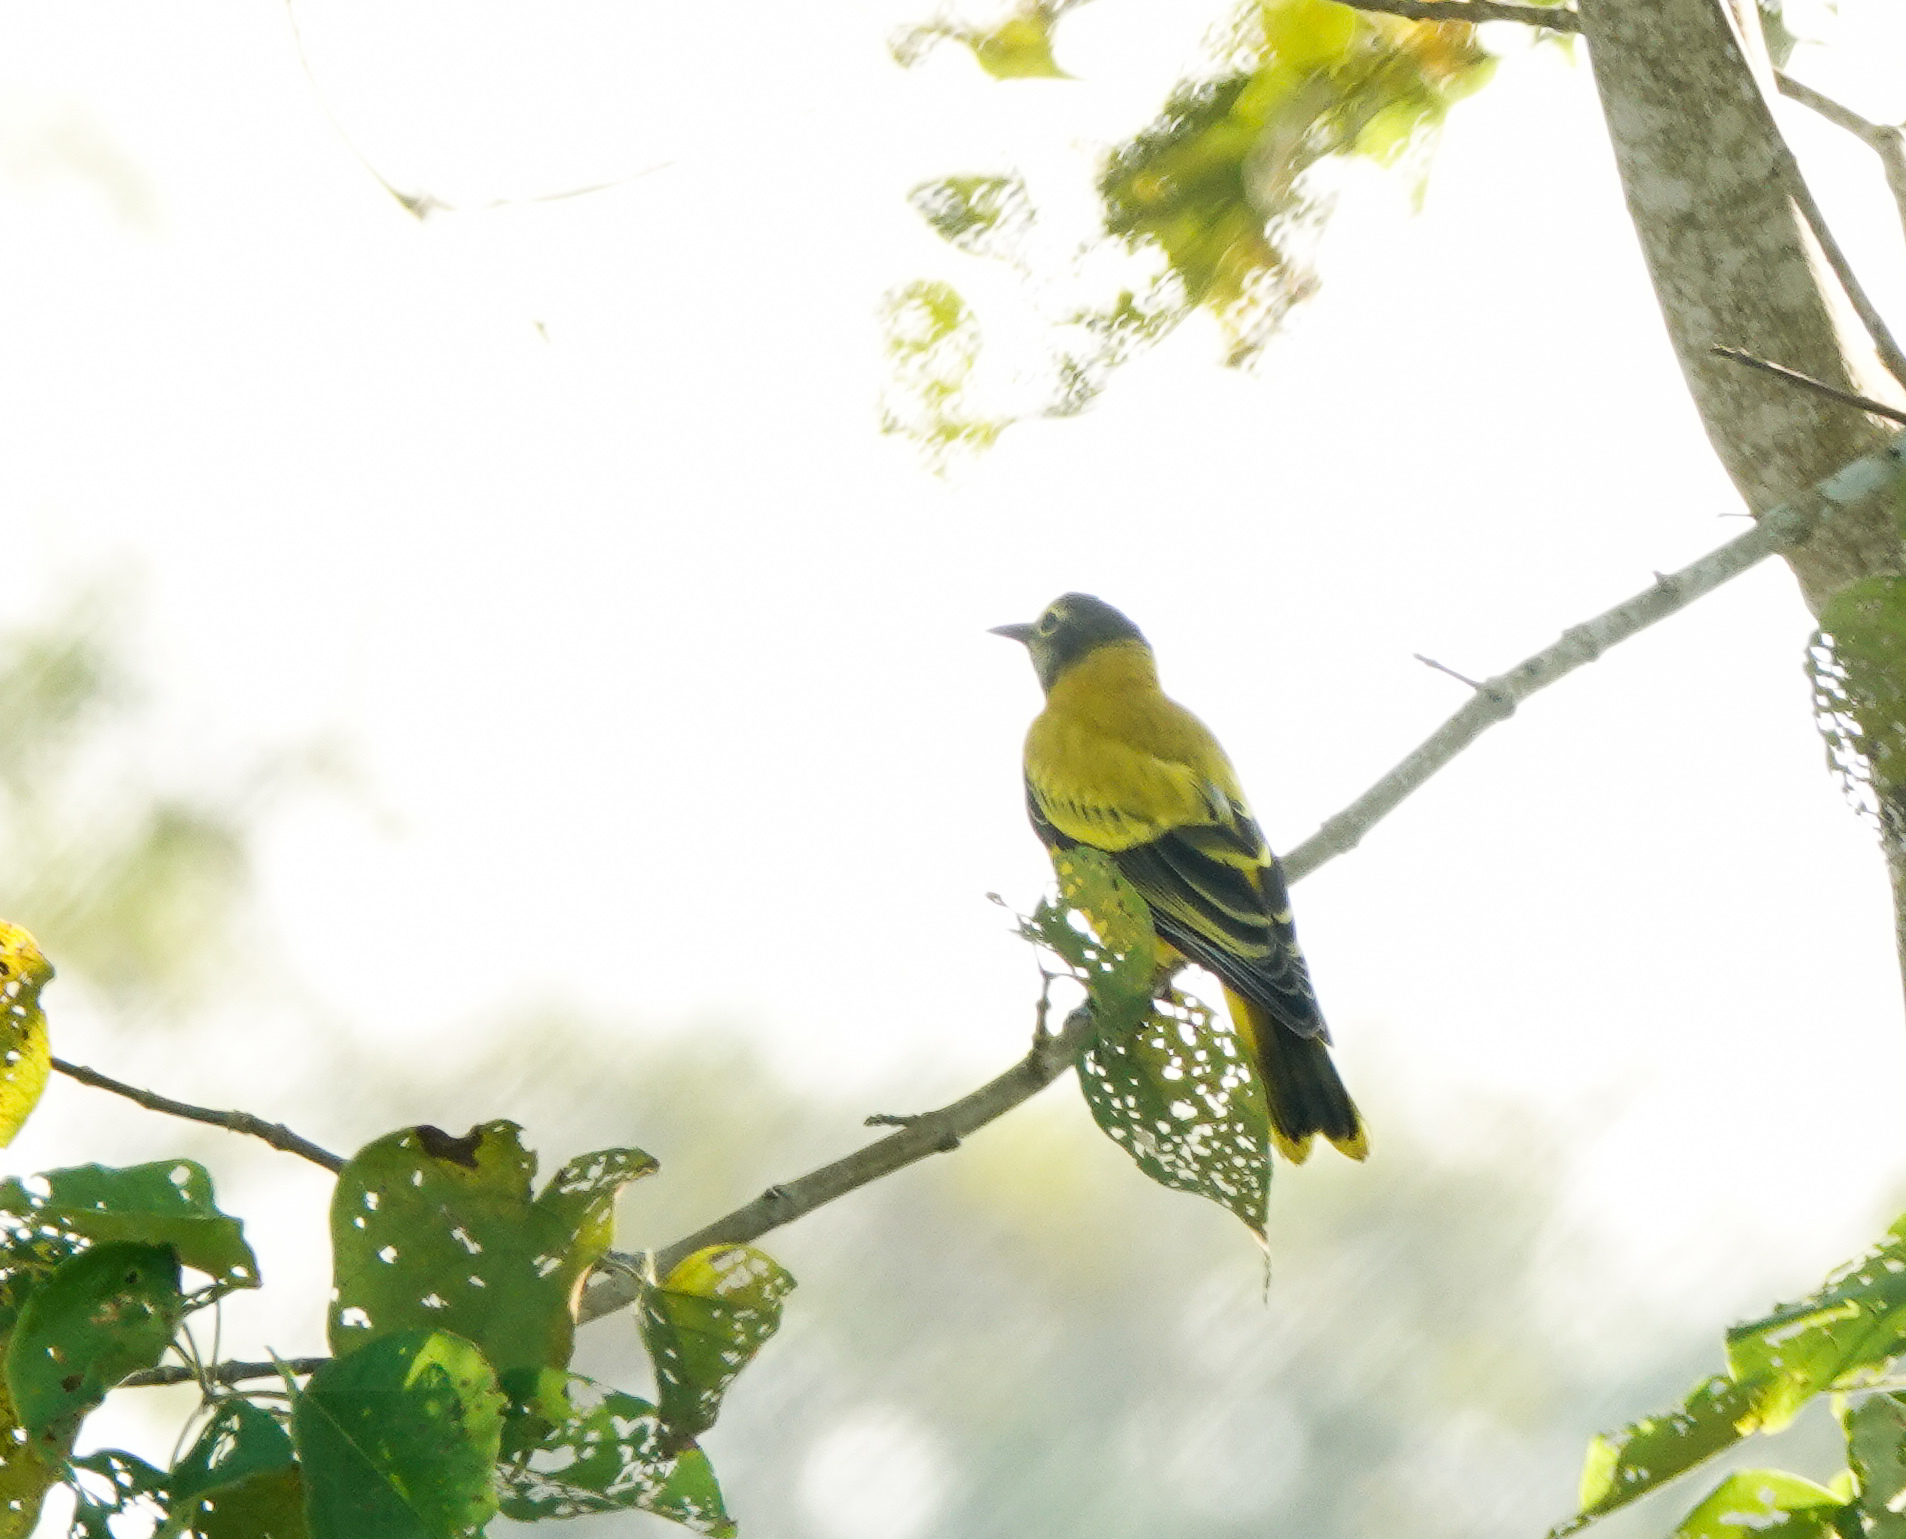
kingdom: Animalia
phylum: Chordata
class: Aves
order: Passeriformes
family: Oriolidae
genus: Oriolus
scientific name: Oriolus xanthornus
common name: Black-hooded oriole
